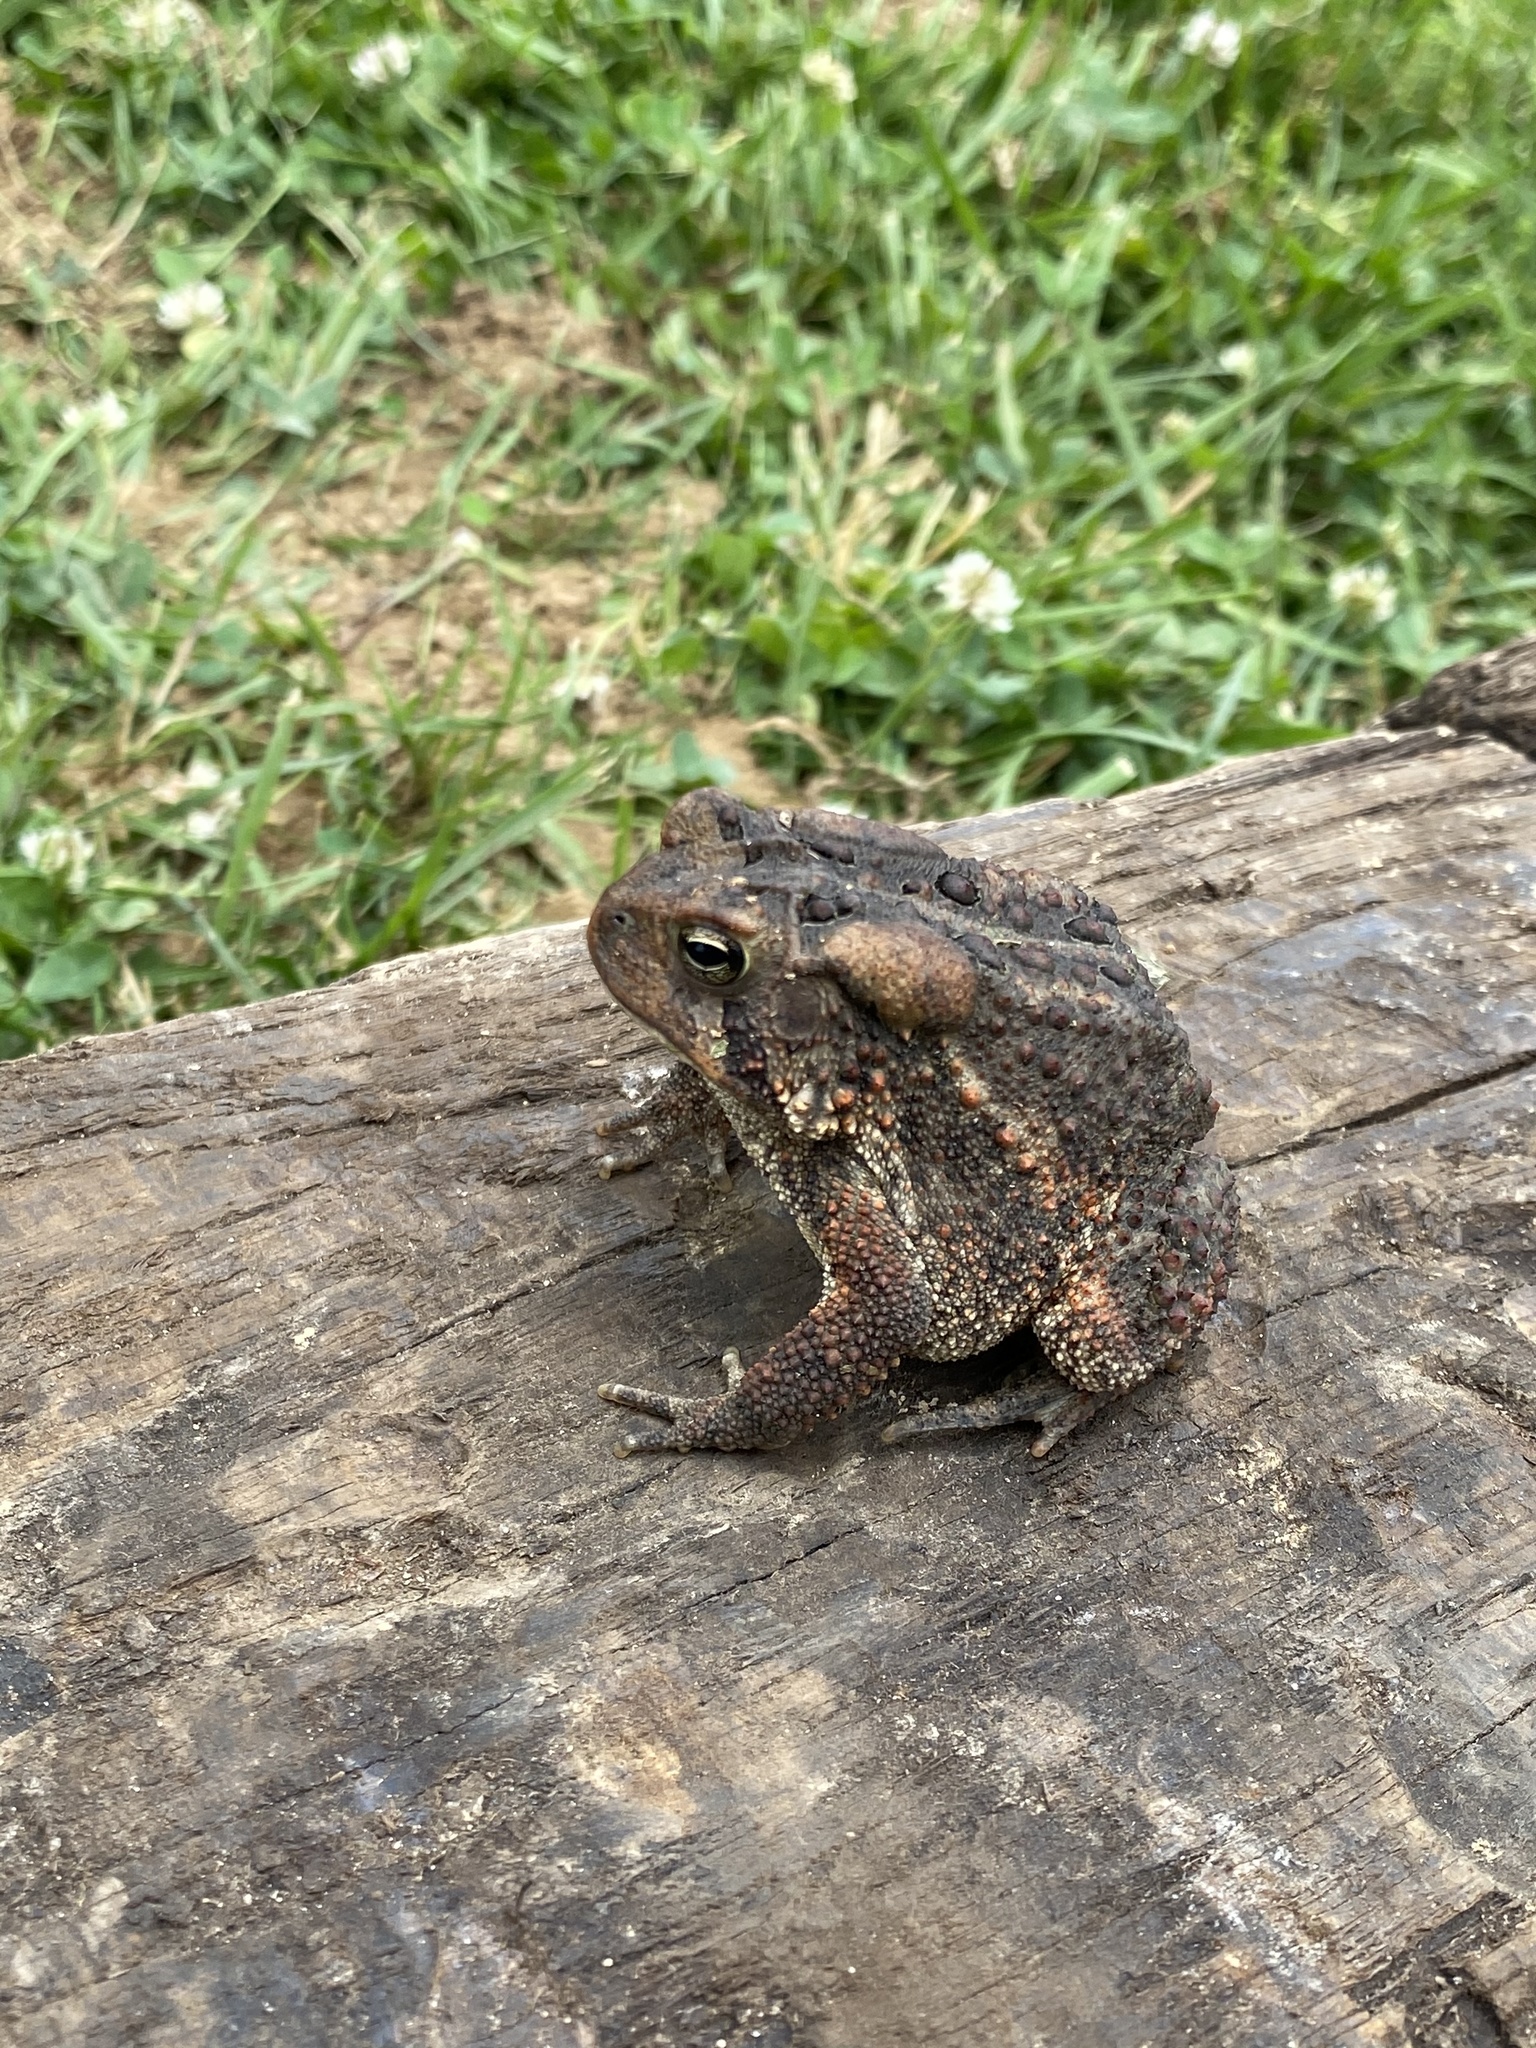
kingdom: Animalia
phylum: Chordata
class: Amphibia
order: Anura
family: Bufonidae
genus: Anaxyrus
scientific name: Anaxyrus americanus
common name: American toad
